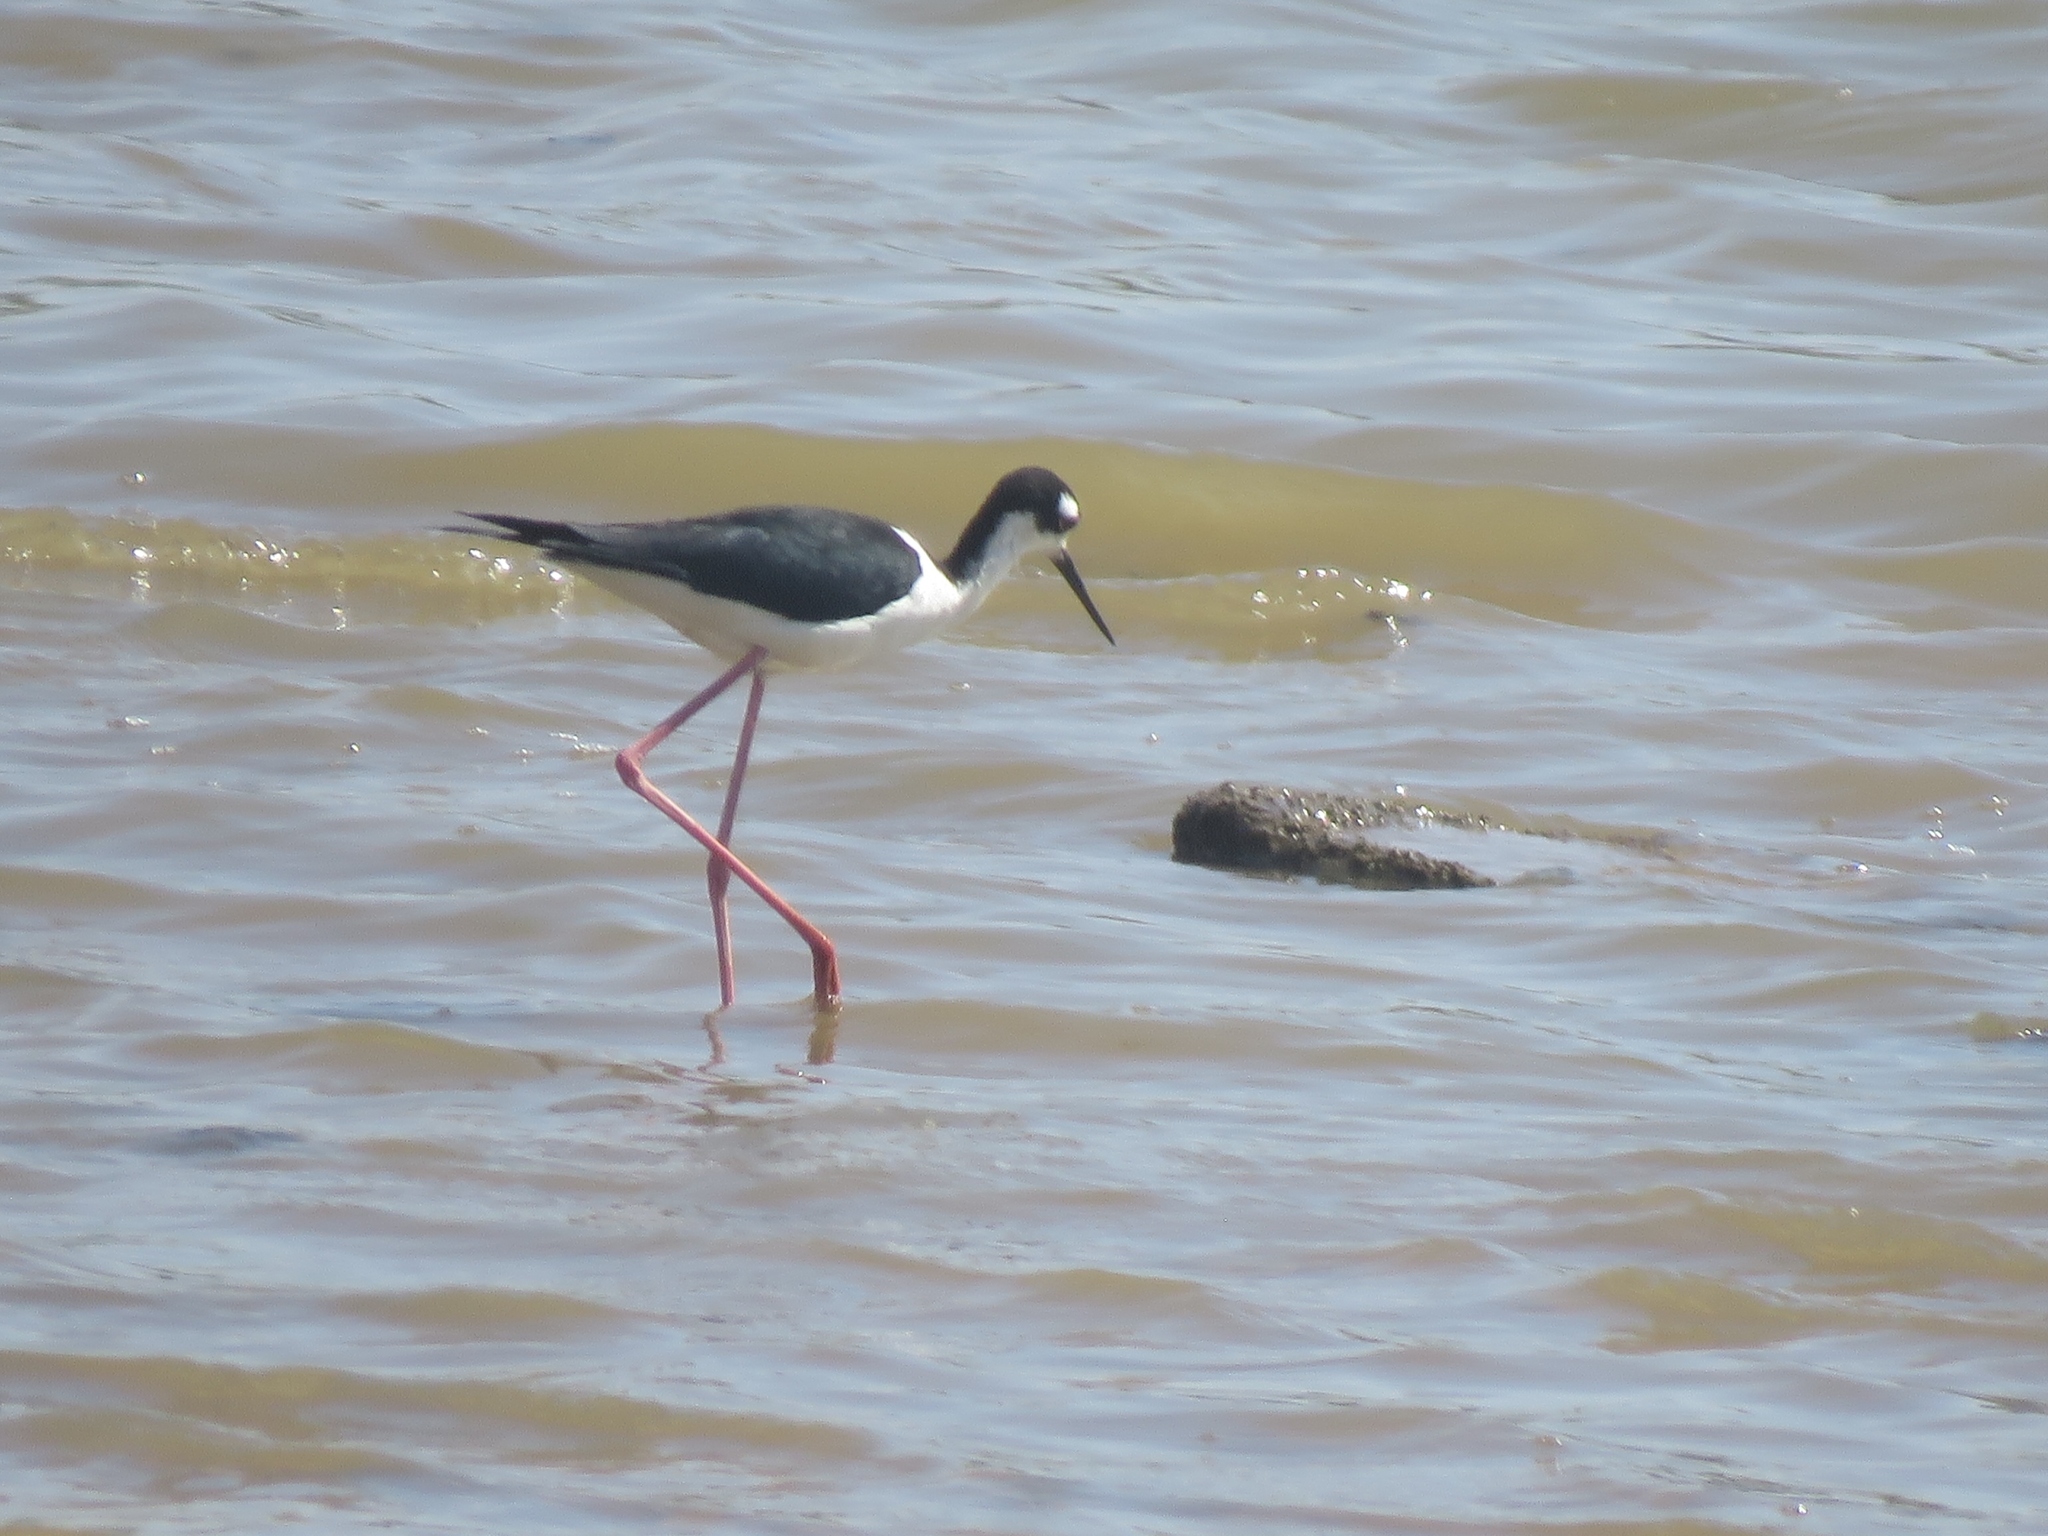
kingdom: Animalia
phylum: Chordata
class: Aves
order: Charadriiformes
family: Recurvirostridae
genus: Himantopus
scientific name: Himantopus mexicanus
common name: Black-necked stilt
